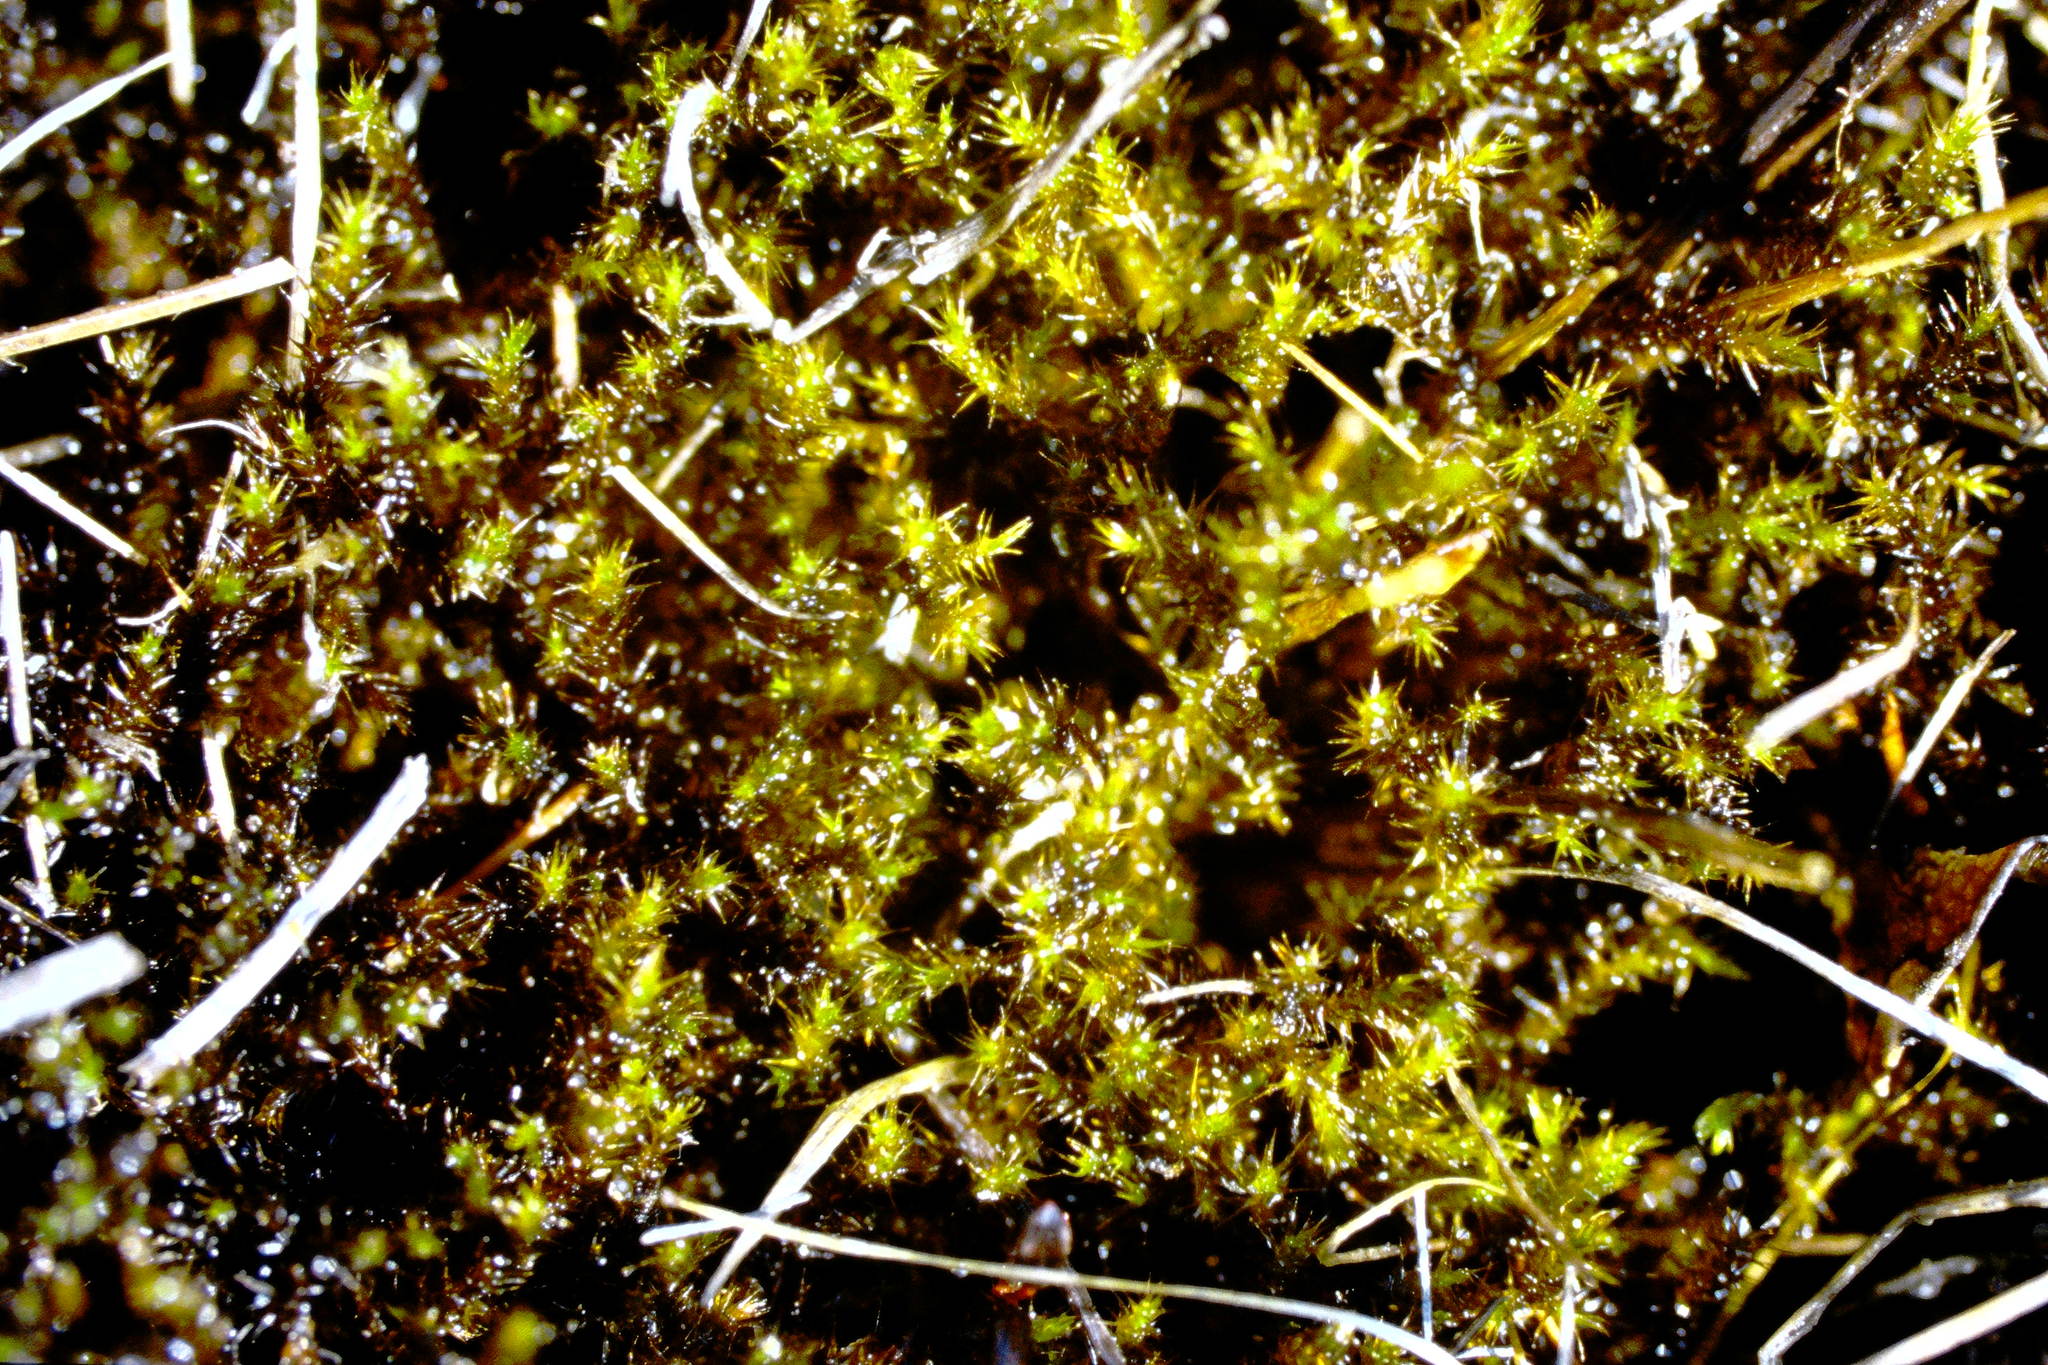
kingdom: Plantae
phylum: Bryophyta
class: Bryopsida
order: Hypnales
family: Amblystegiaceae
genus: Campylium
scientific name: Campylium stellatum
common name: Yellow starry fen moss
